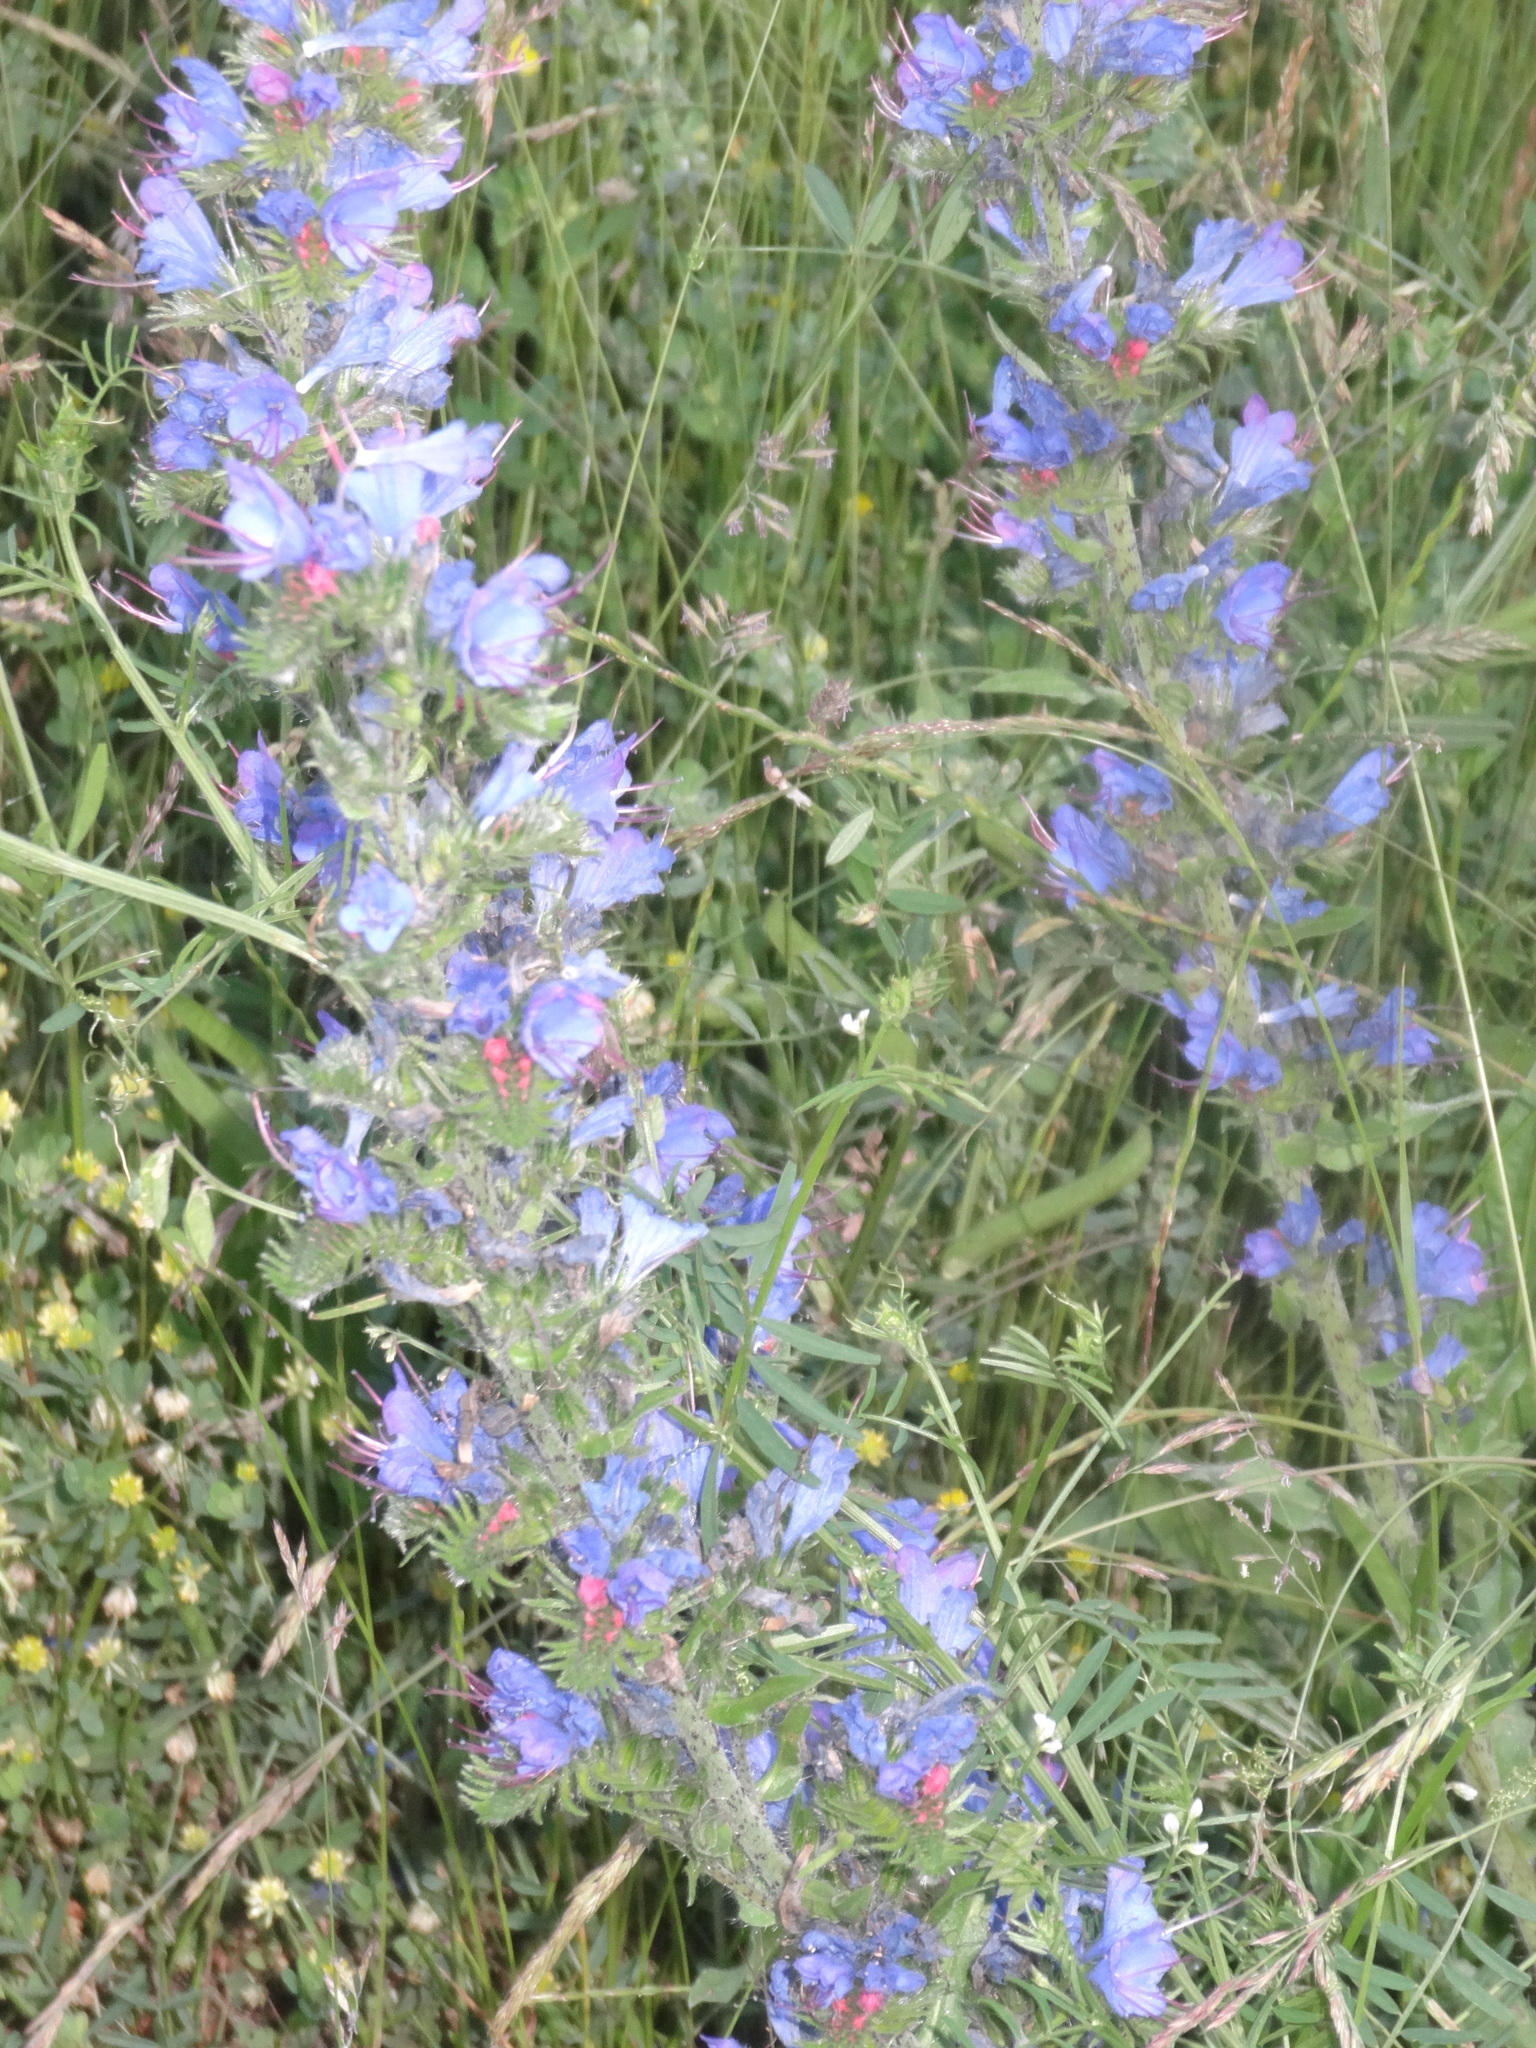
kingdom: Plantae
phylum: Tracheophyta
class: Magnoliopsida
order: Boraginales
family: Boraginaceae
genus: Echium
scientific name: Echium vulgare
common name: Common viper's bugloss
